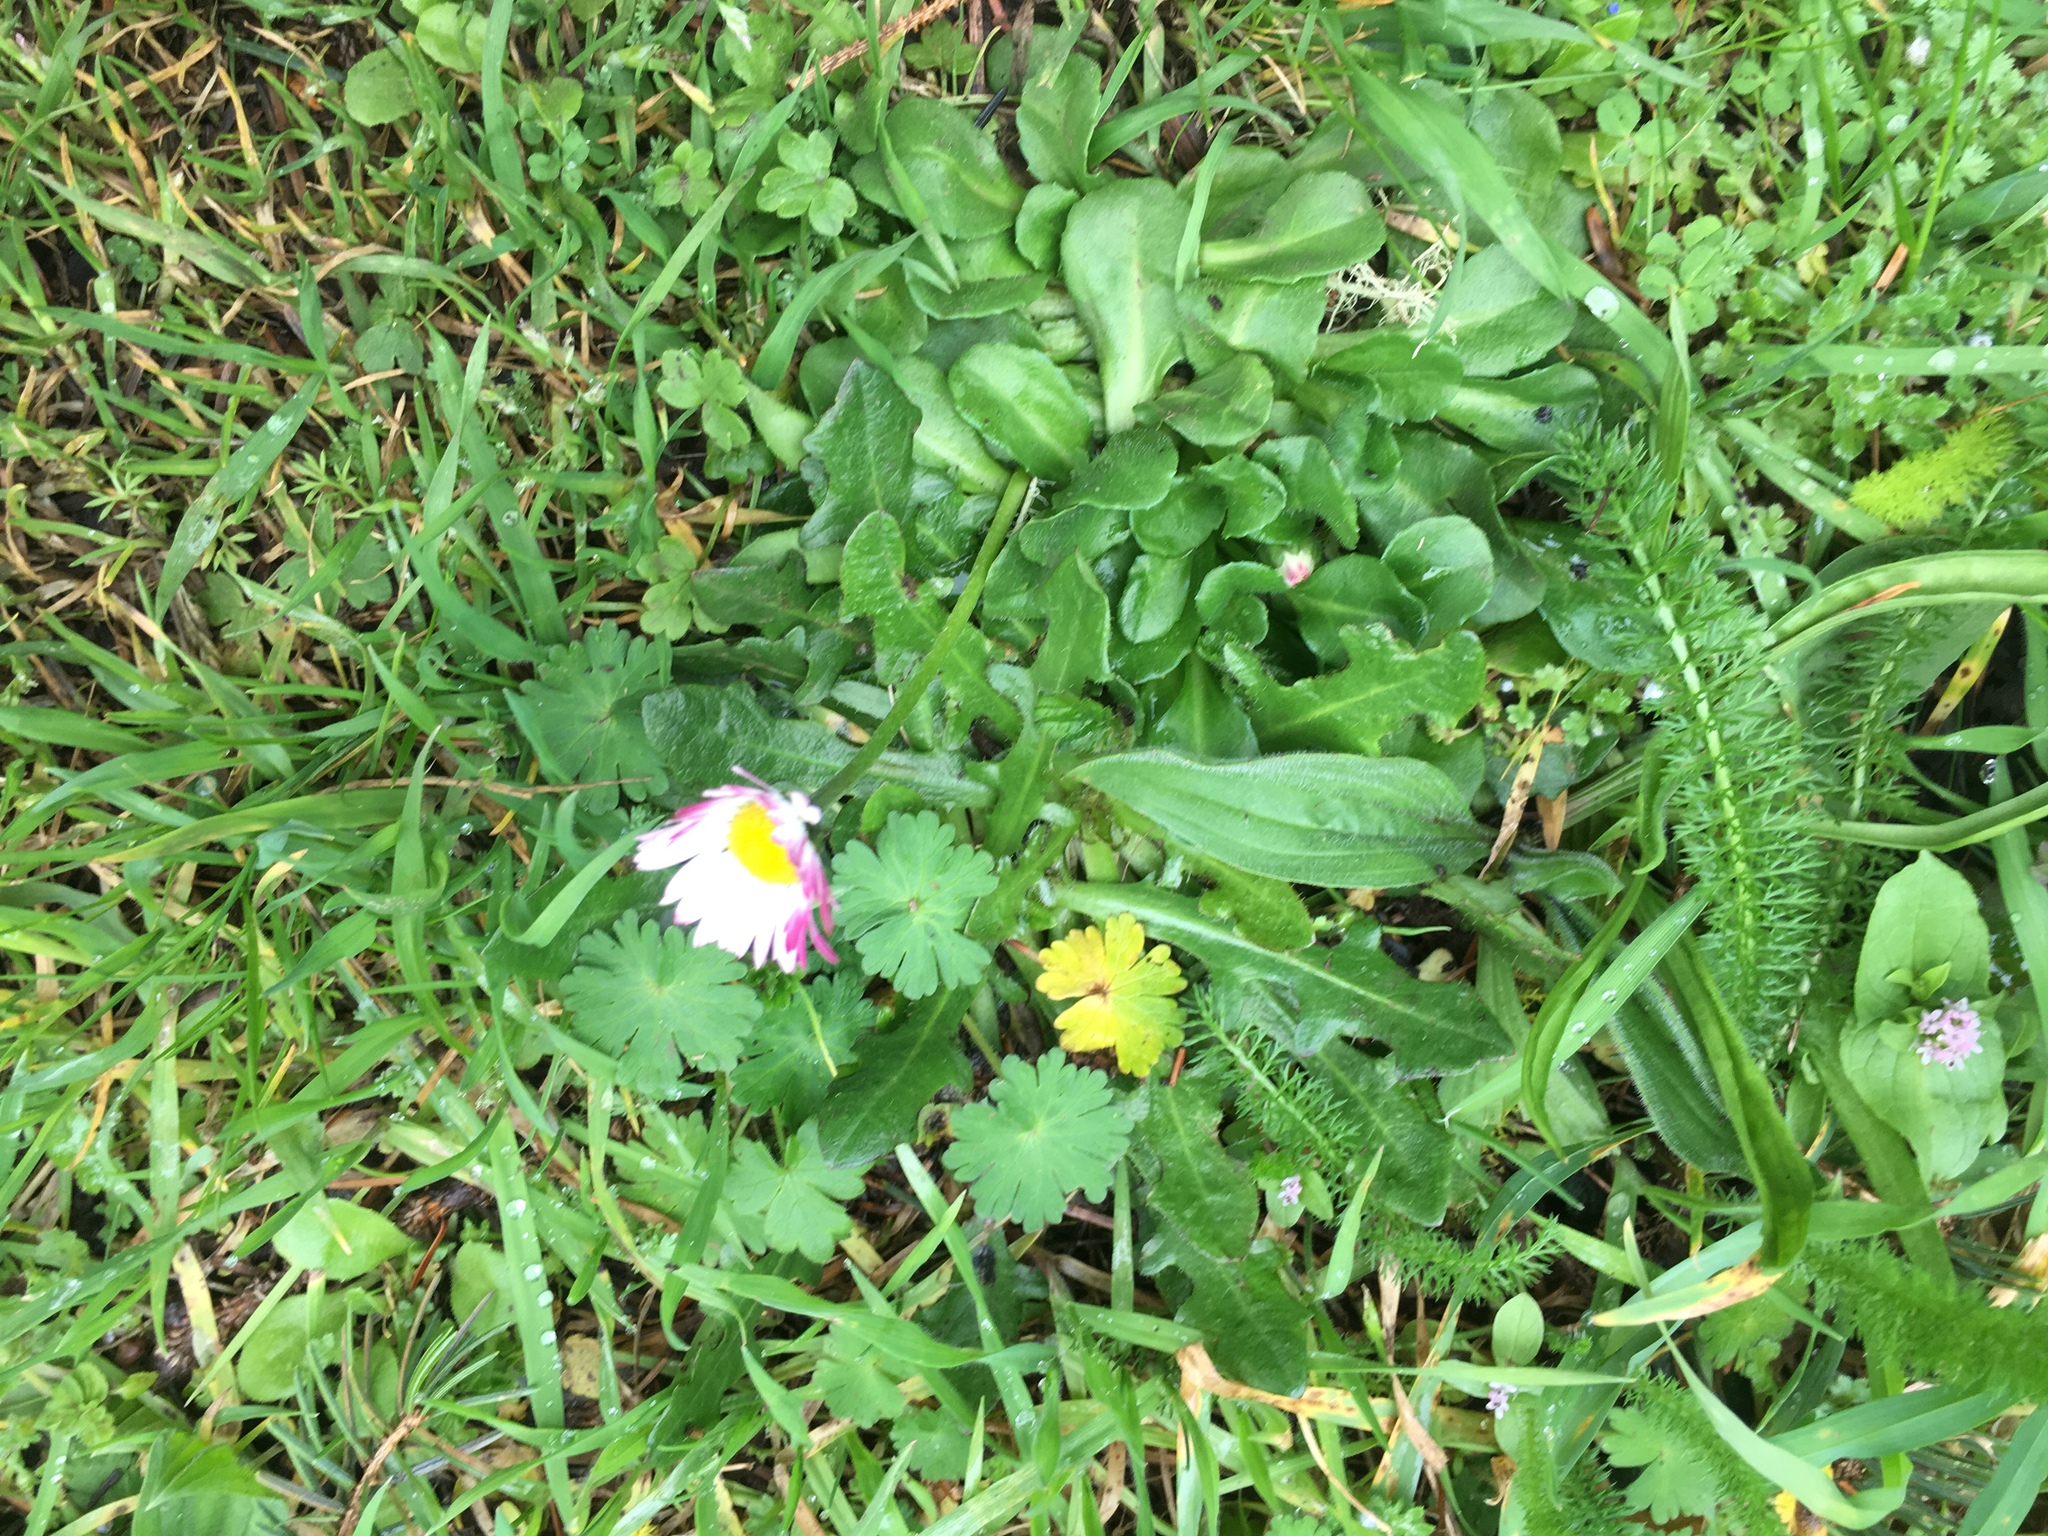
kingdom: Plantae
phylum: Tracheophyta
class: Magnoliopsida
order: Asterales
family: Asteraceae
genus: Bellis
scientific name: Bellis perennis
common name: Lawndaisy
